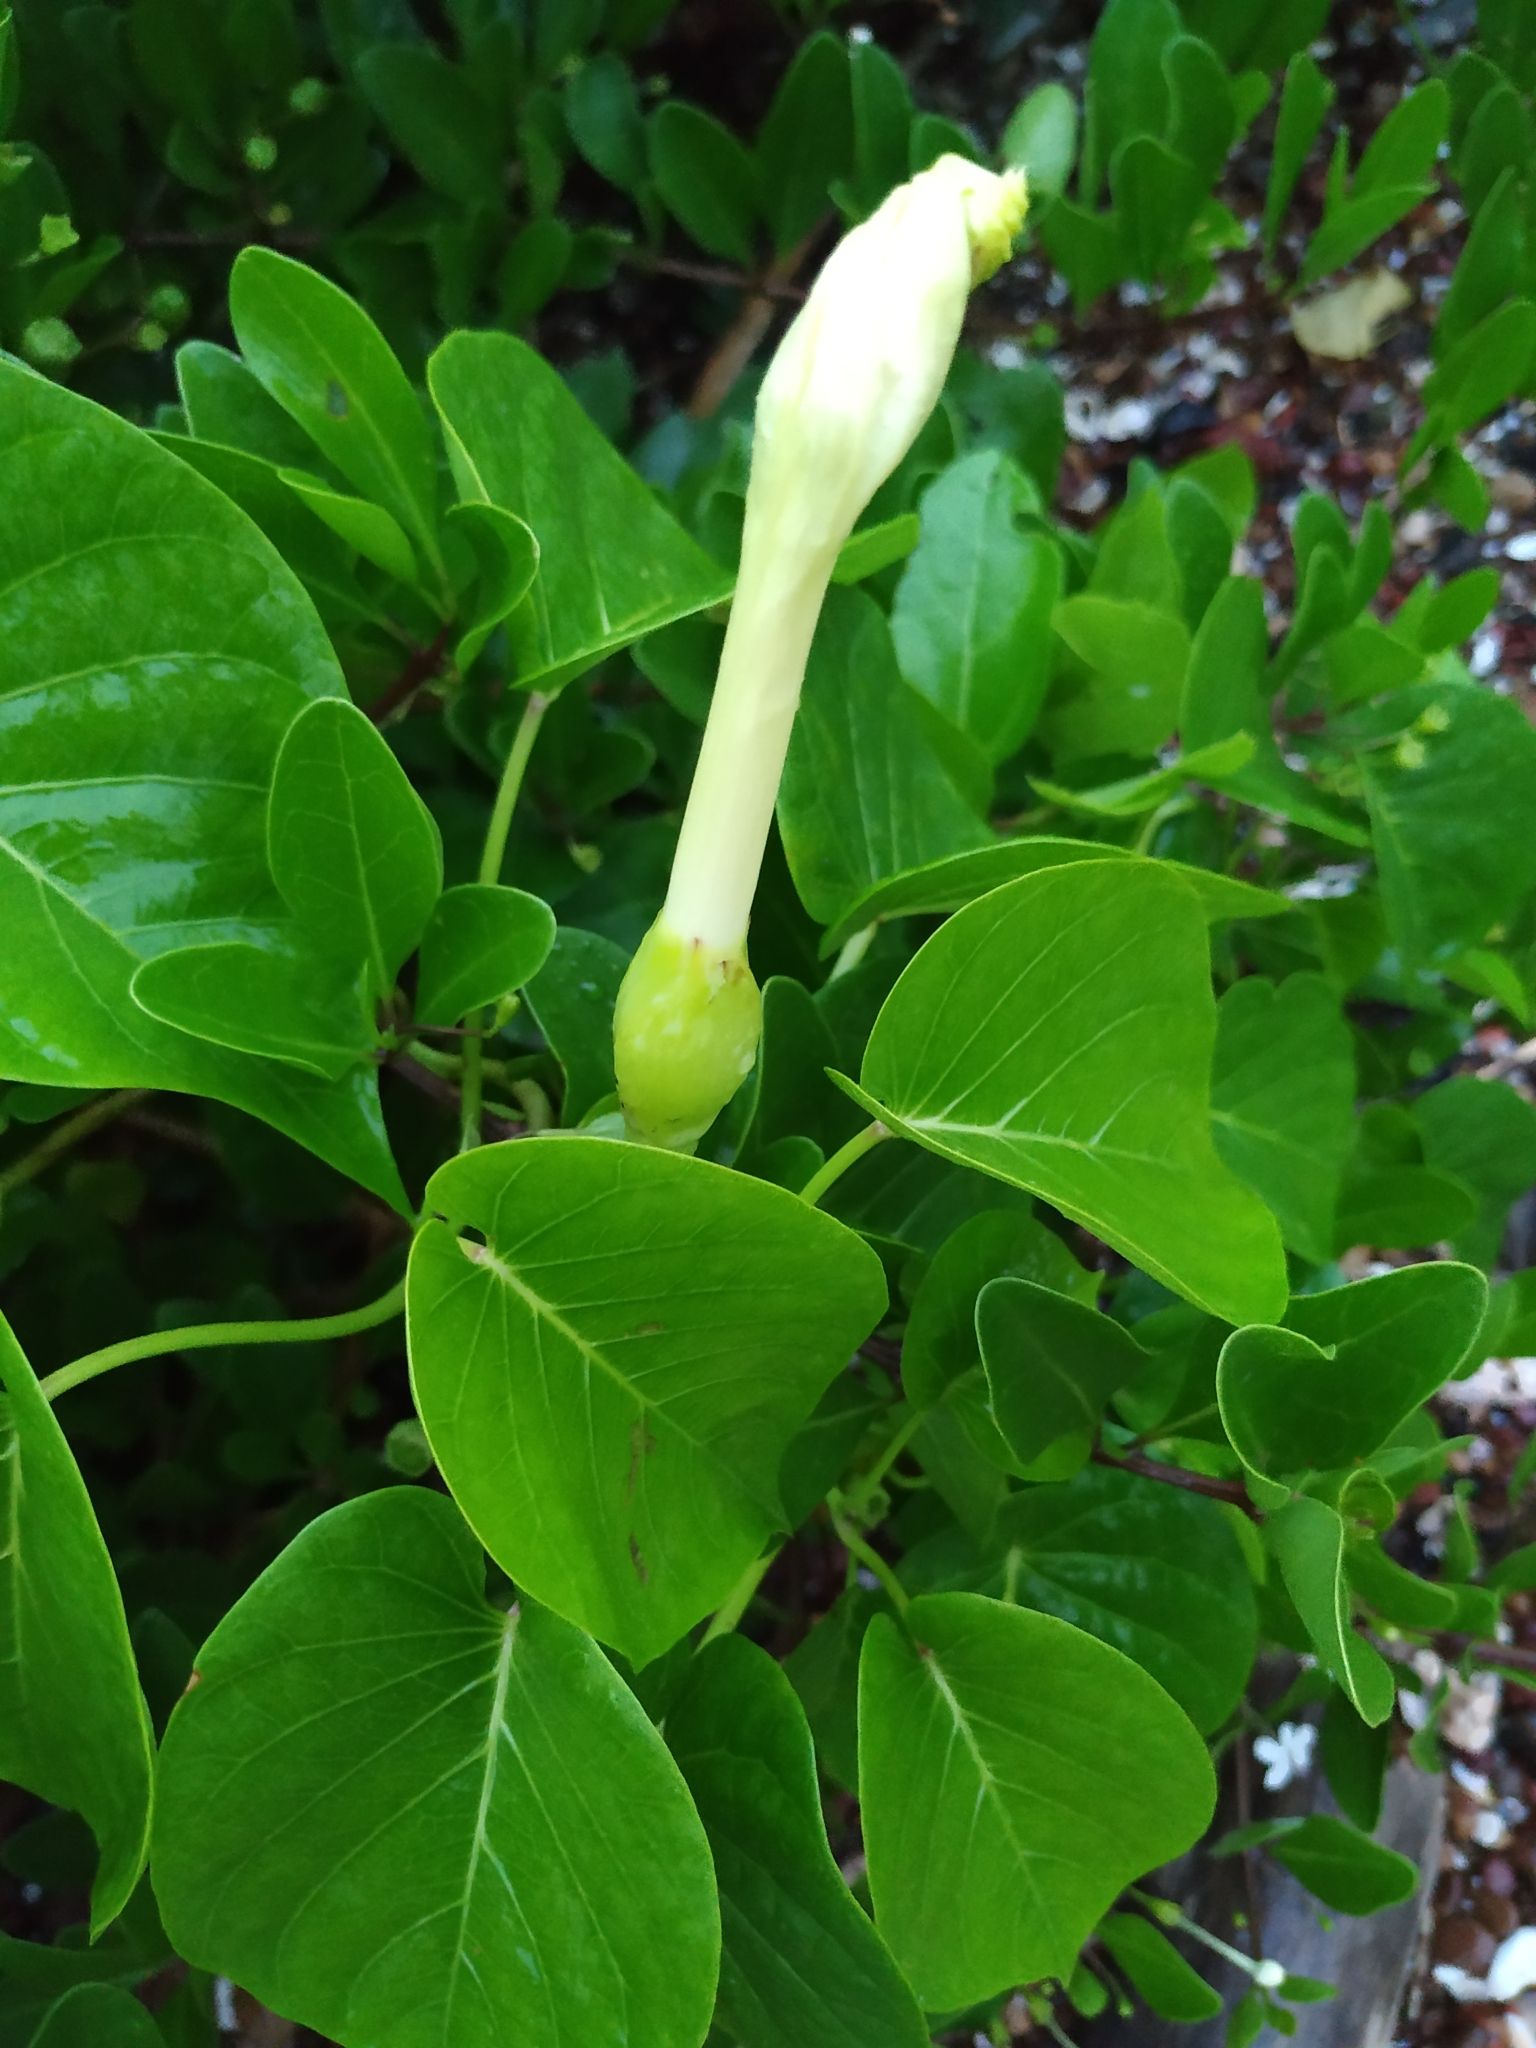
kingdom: Plantae
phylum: Tracheophyta
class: Magnoliopsida
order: Solanales
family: Convolvulaceae
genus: Ipomoea
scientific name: Ipomoea violacea
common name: Beach moonflower
